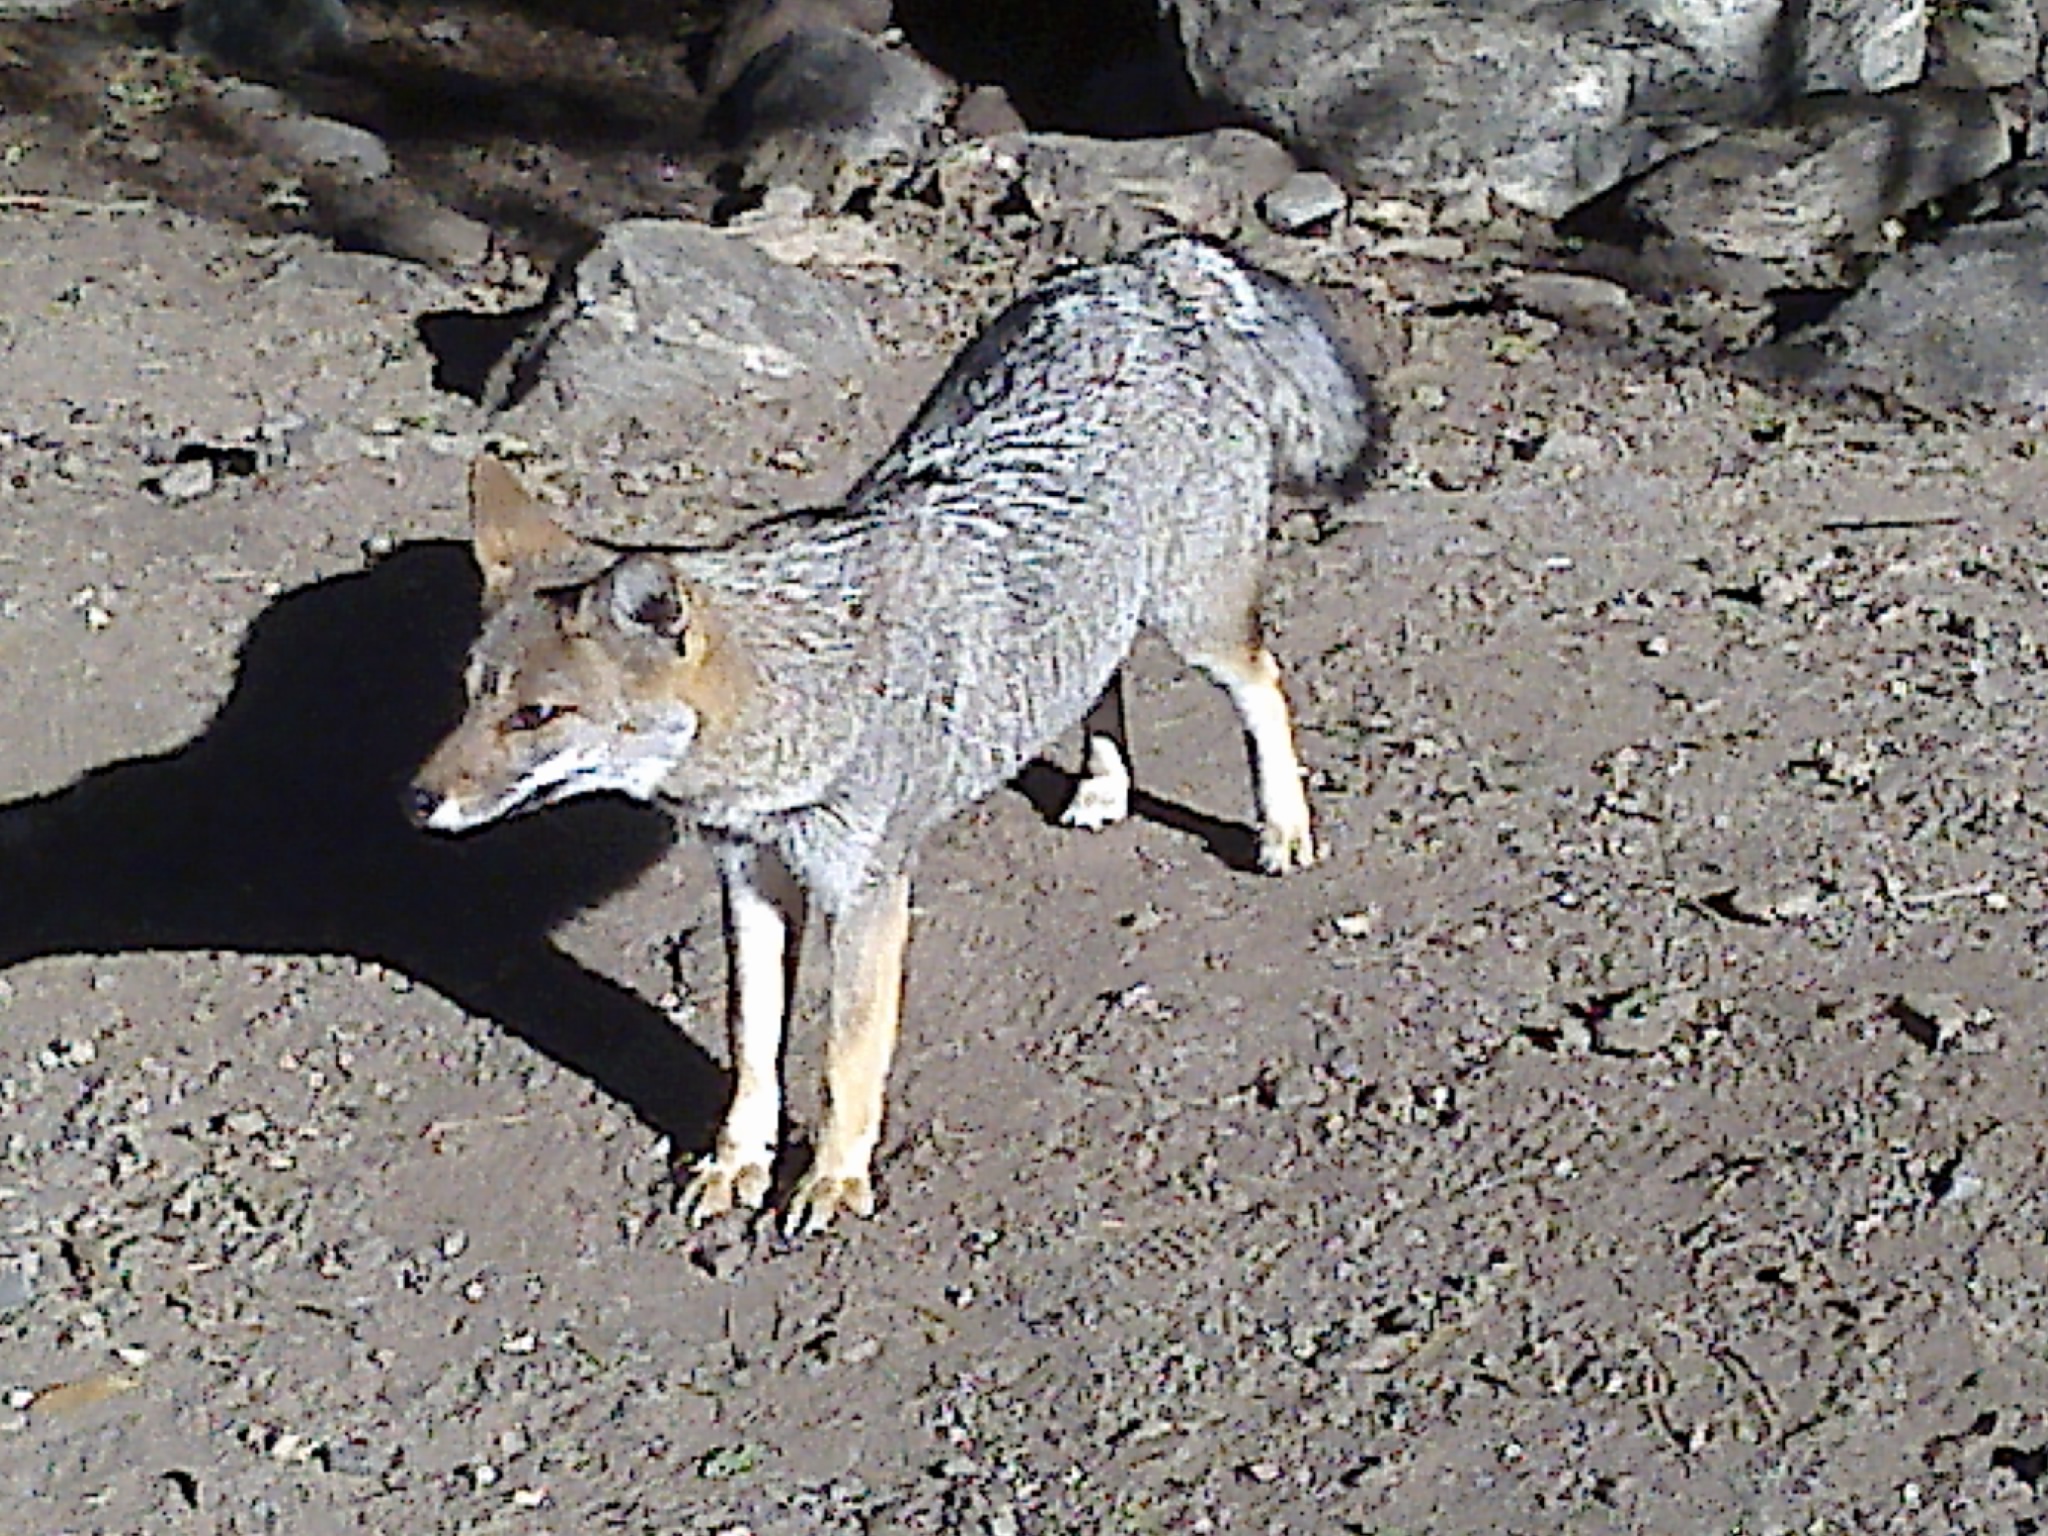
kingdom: Animalia
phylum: Chordata
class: Mammalia
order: Carnivora
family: Canidae
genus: Lycalopex
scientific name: Lycalopex gymnocercus
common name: Pampas fox
